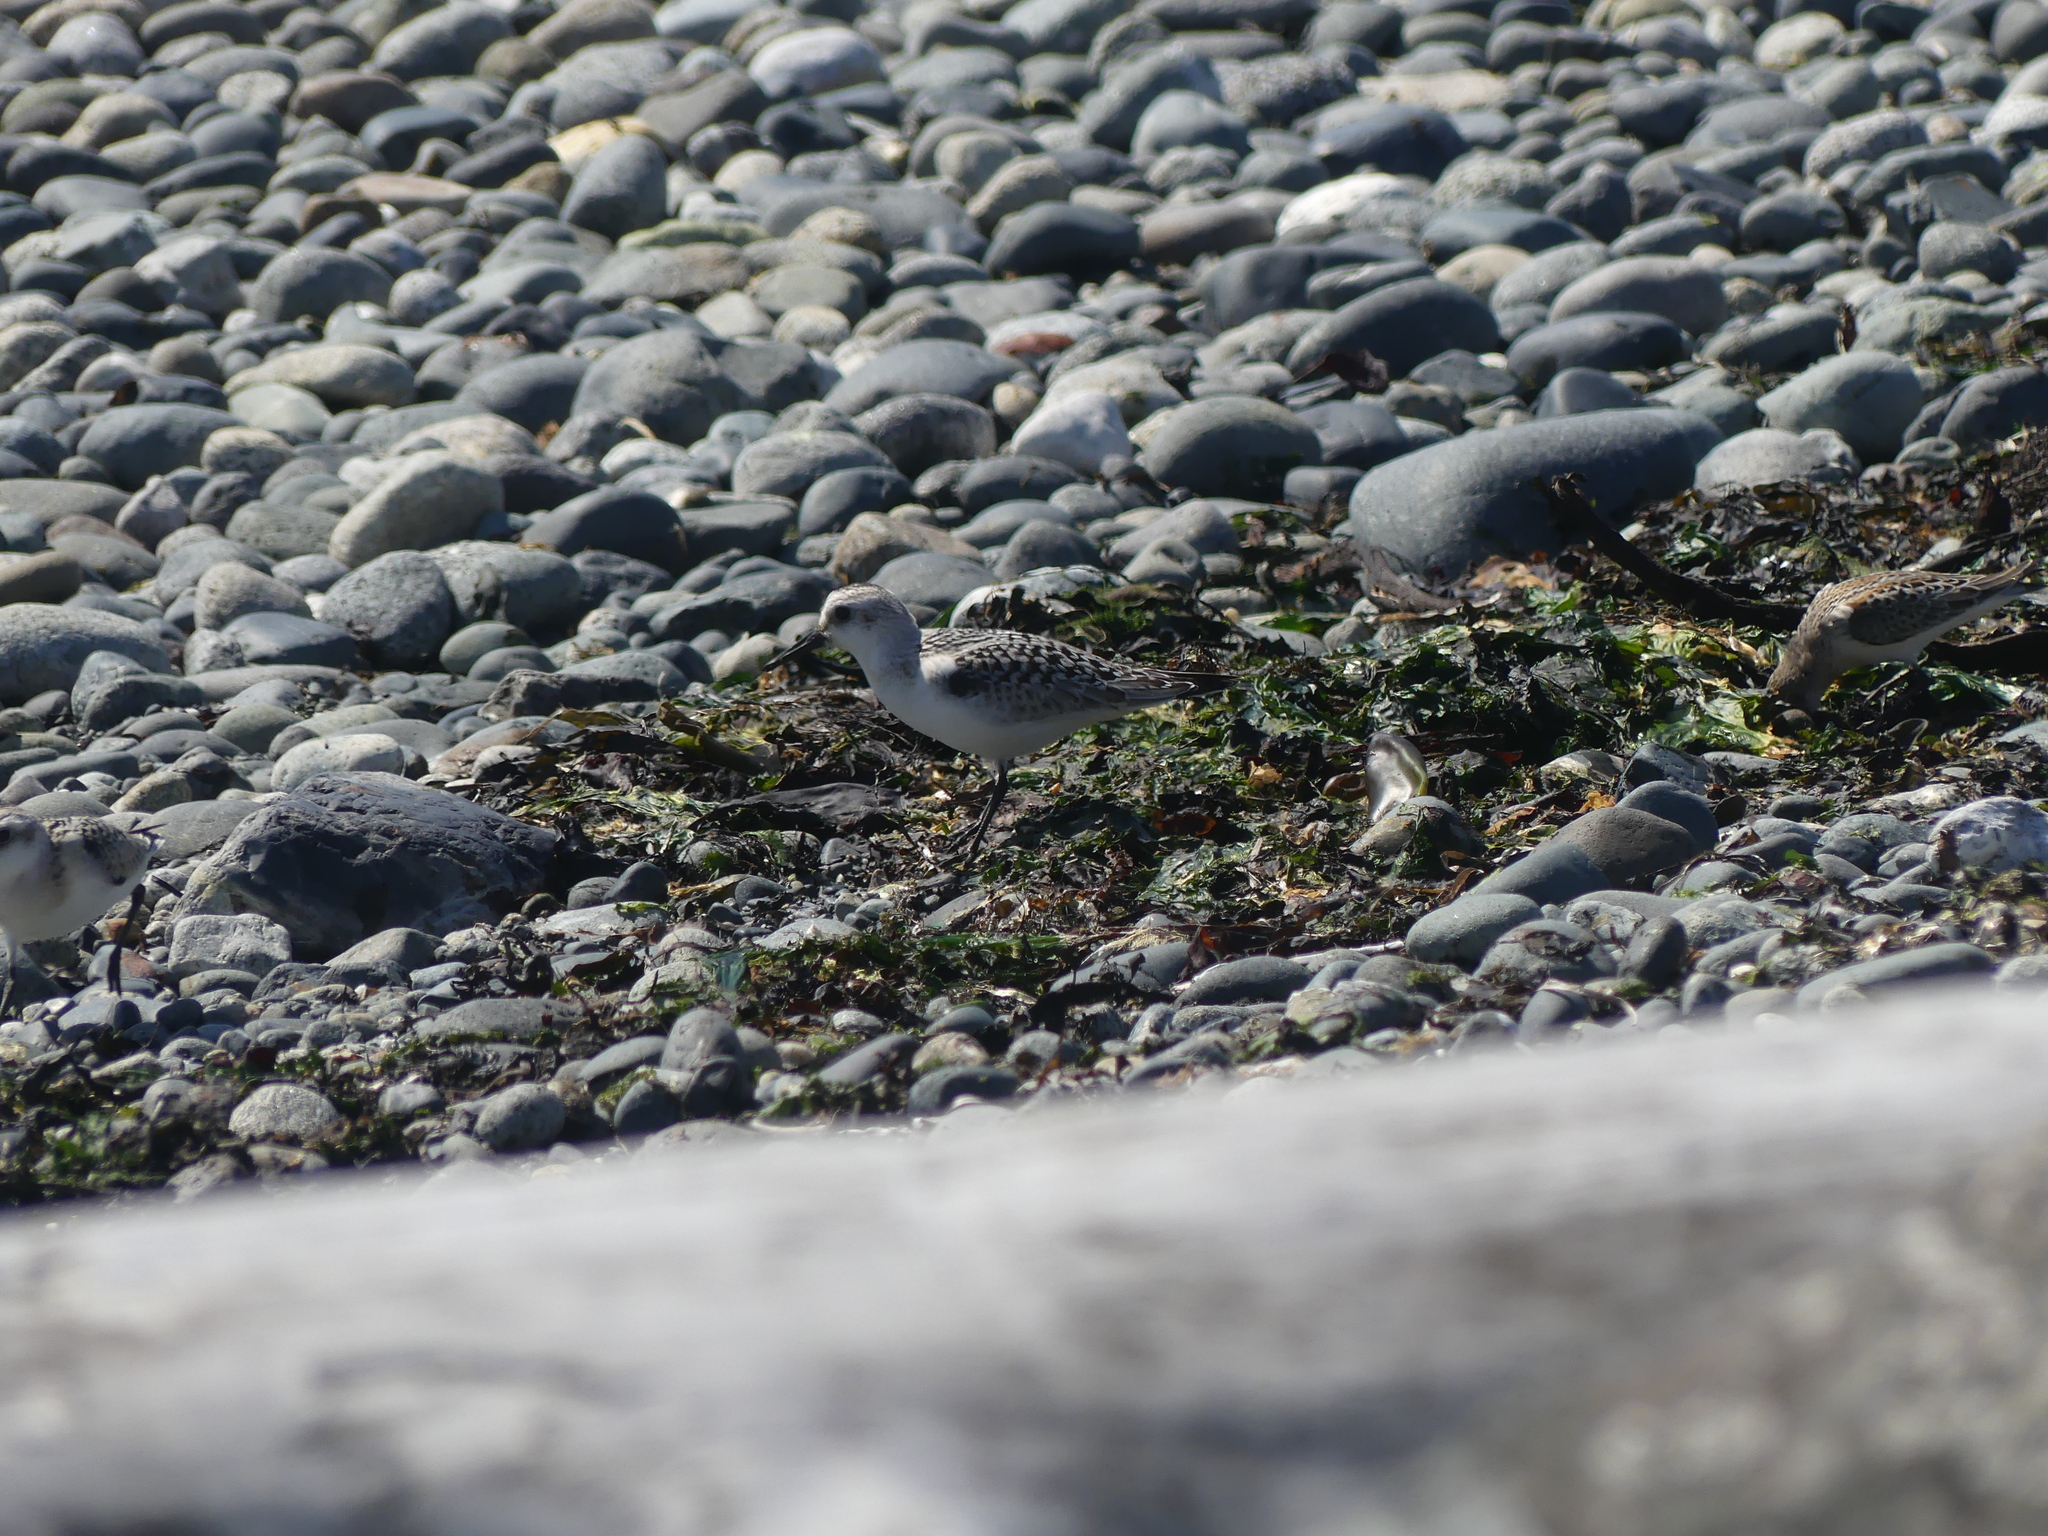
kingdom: Animalia
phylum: Chordata
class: Aves
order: Charadriiformes
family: Scolopacidae
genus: Calidris
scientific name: Calidris alba
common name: Sanderling
